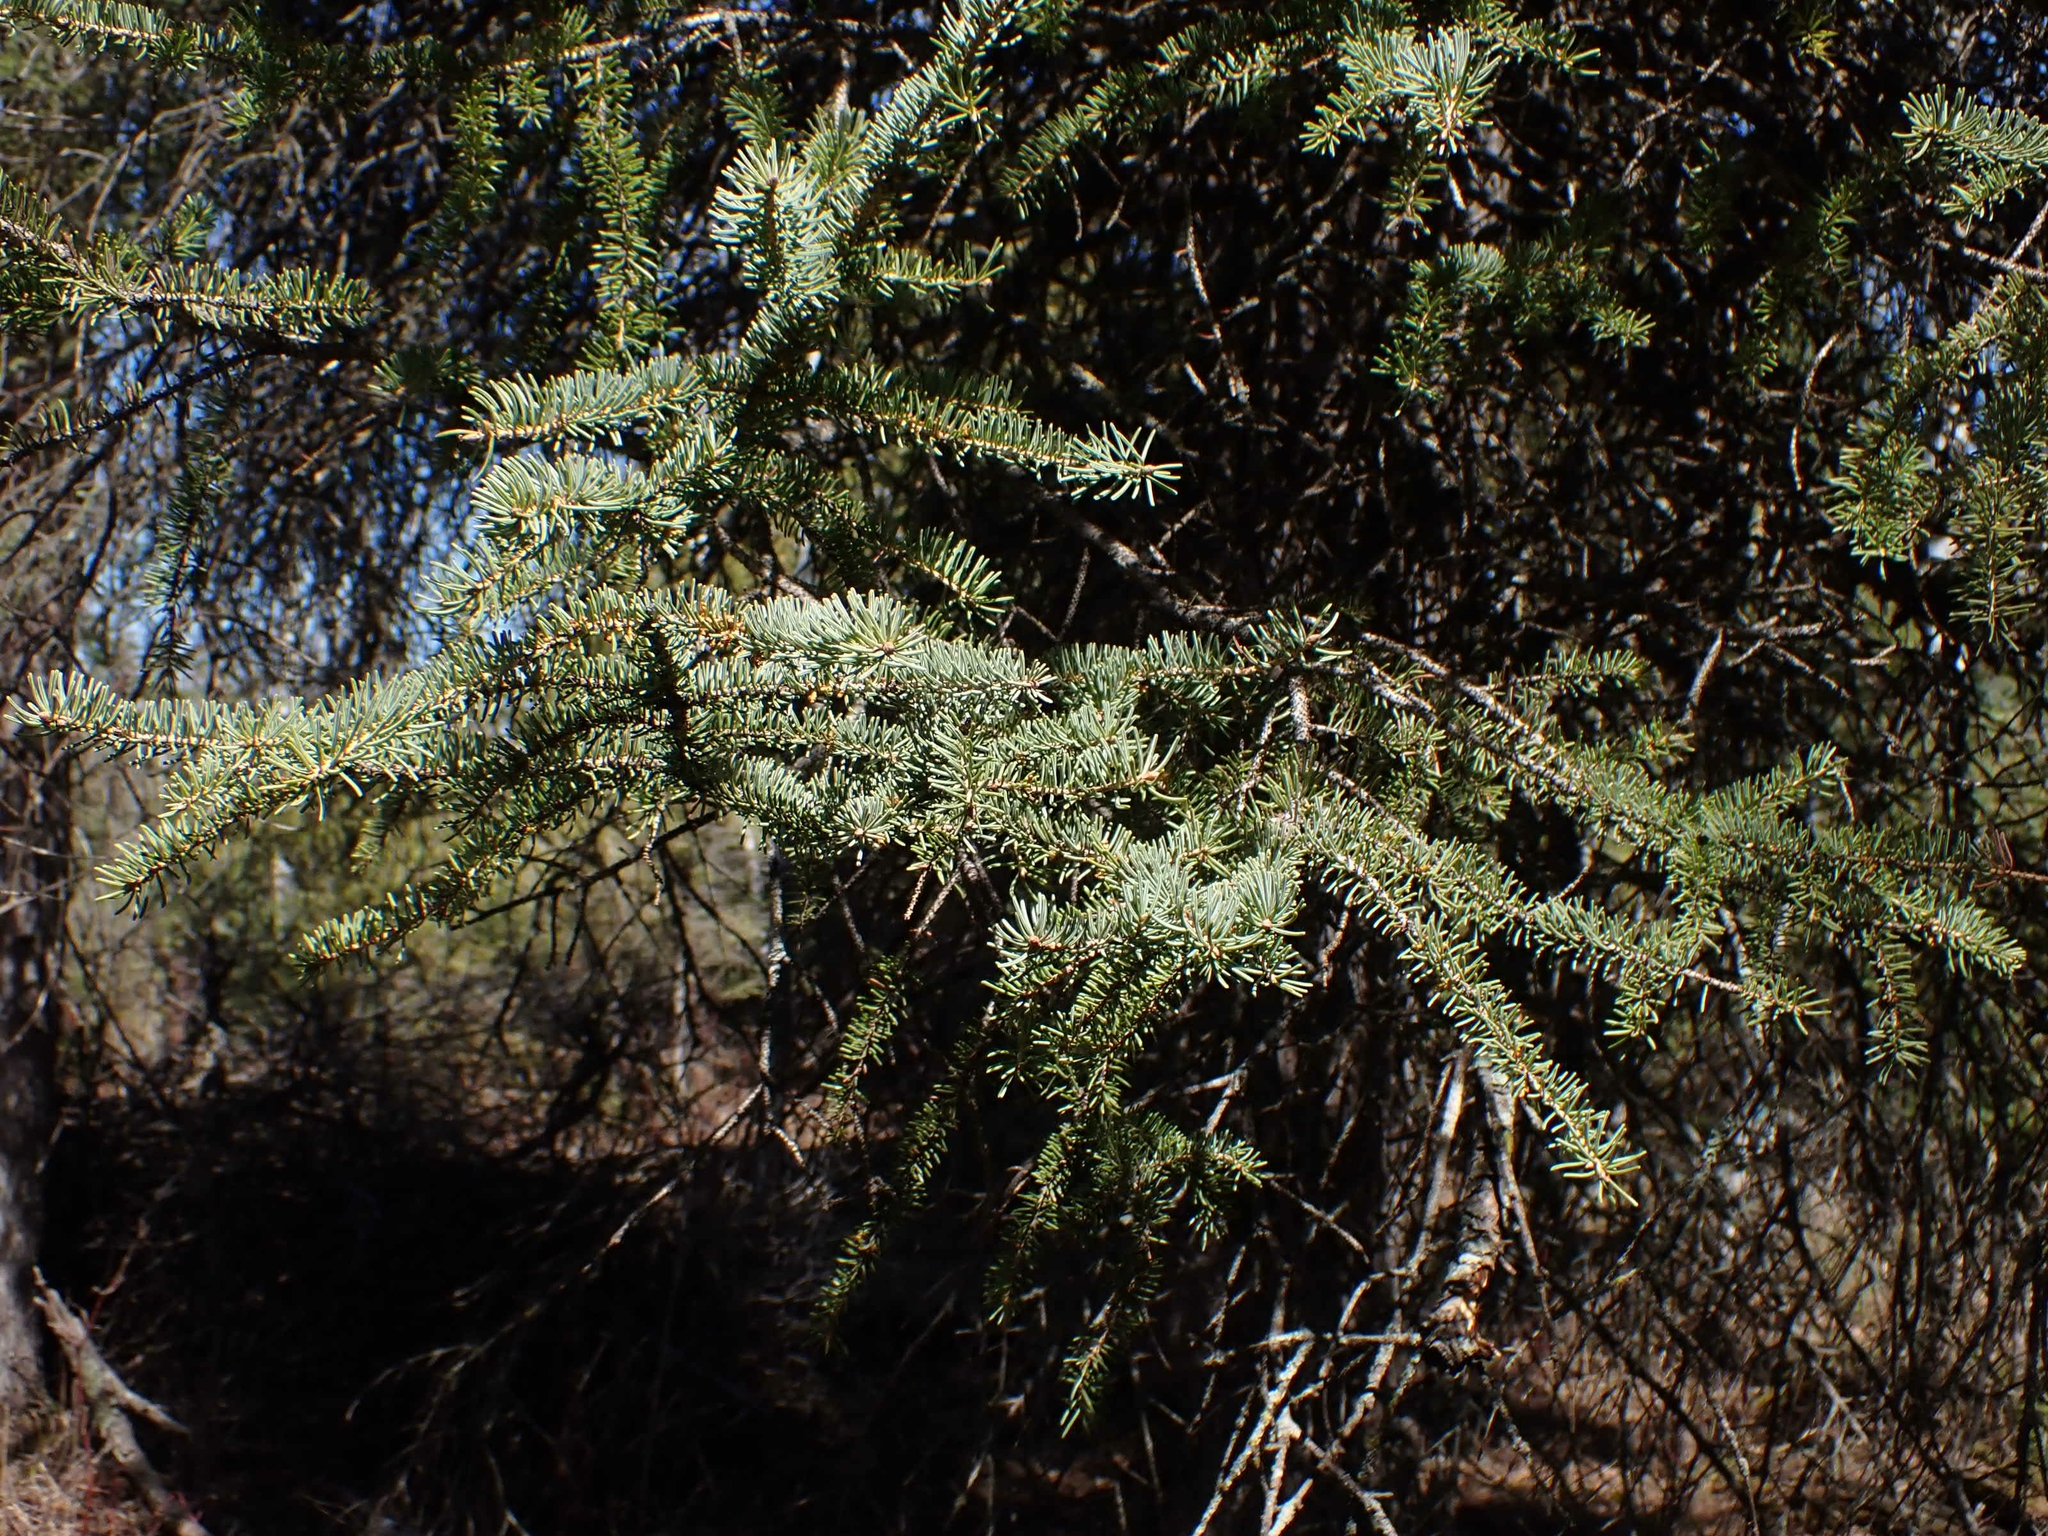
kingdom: Plantae
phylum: Tracheophyta
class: Pinopsida
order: Pinales
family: Pinaceae
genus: Picea
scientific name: Picea glauca
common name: White spruce
